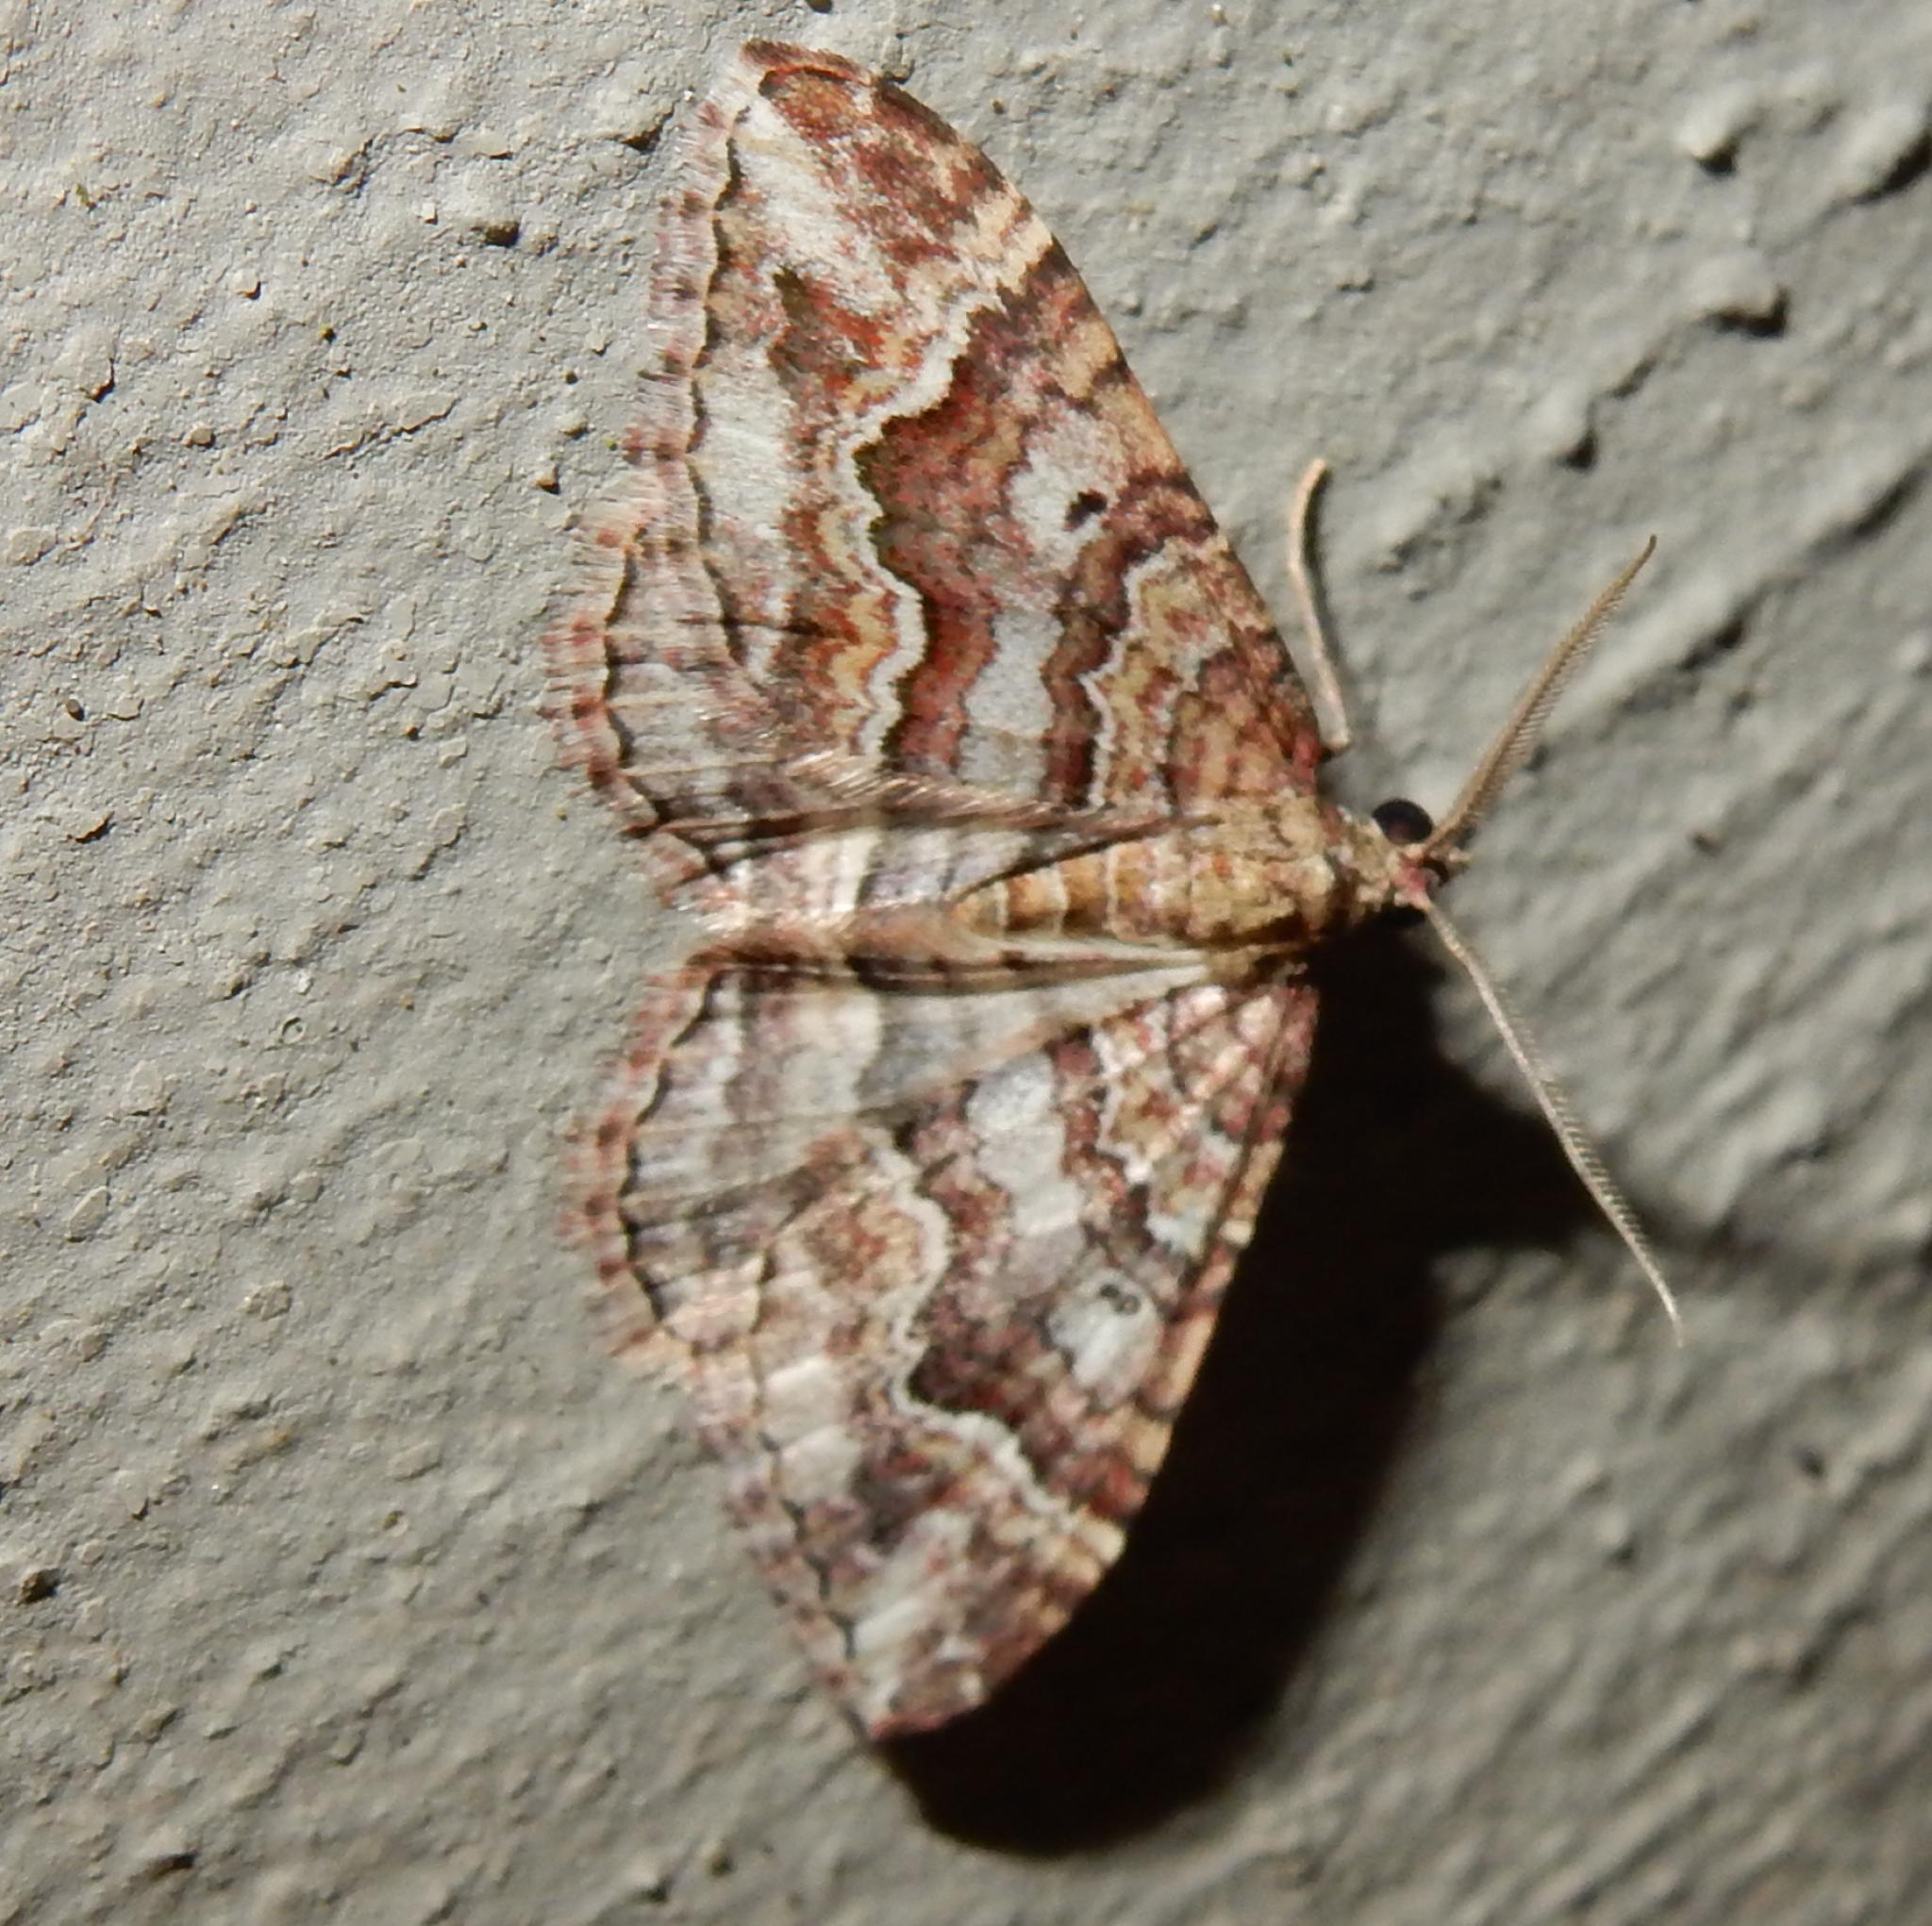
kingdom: Animalia
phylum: Arthropoda
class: Insecta
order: Lepidoptera
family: Geometridae
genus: Mimoclystia
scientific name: Mimoclystia explanata
